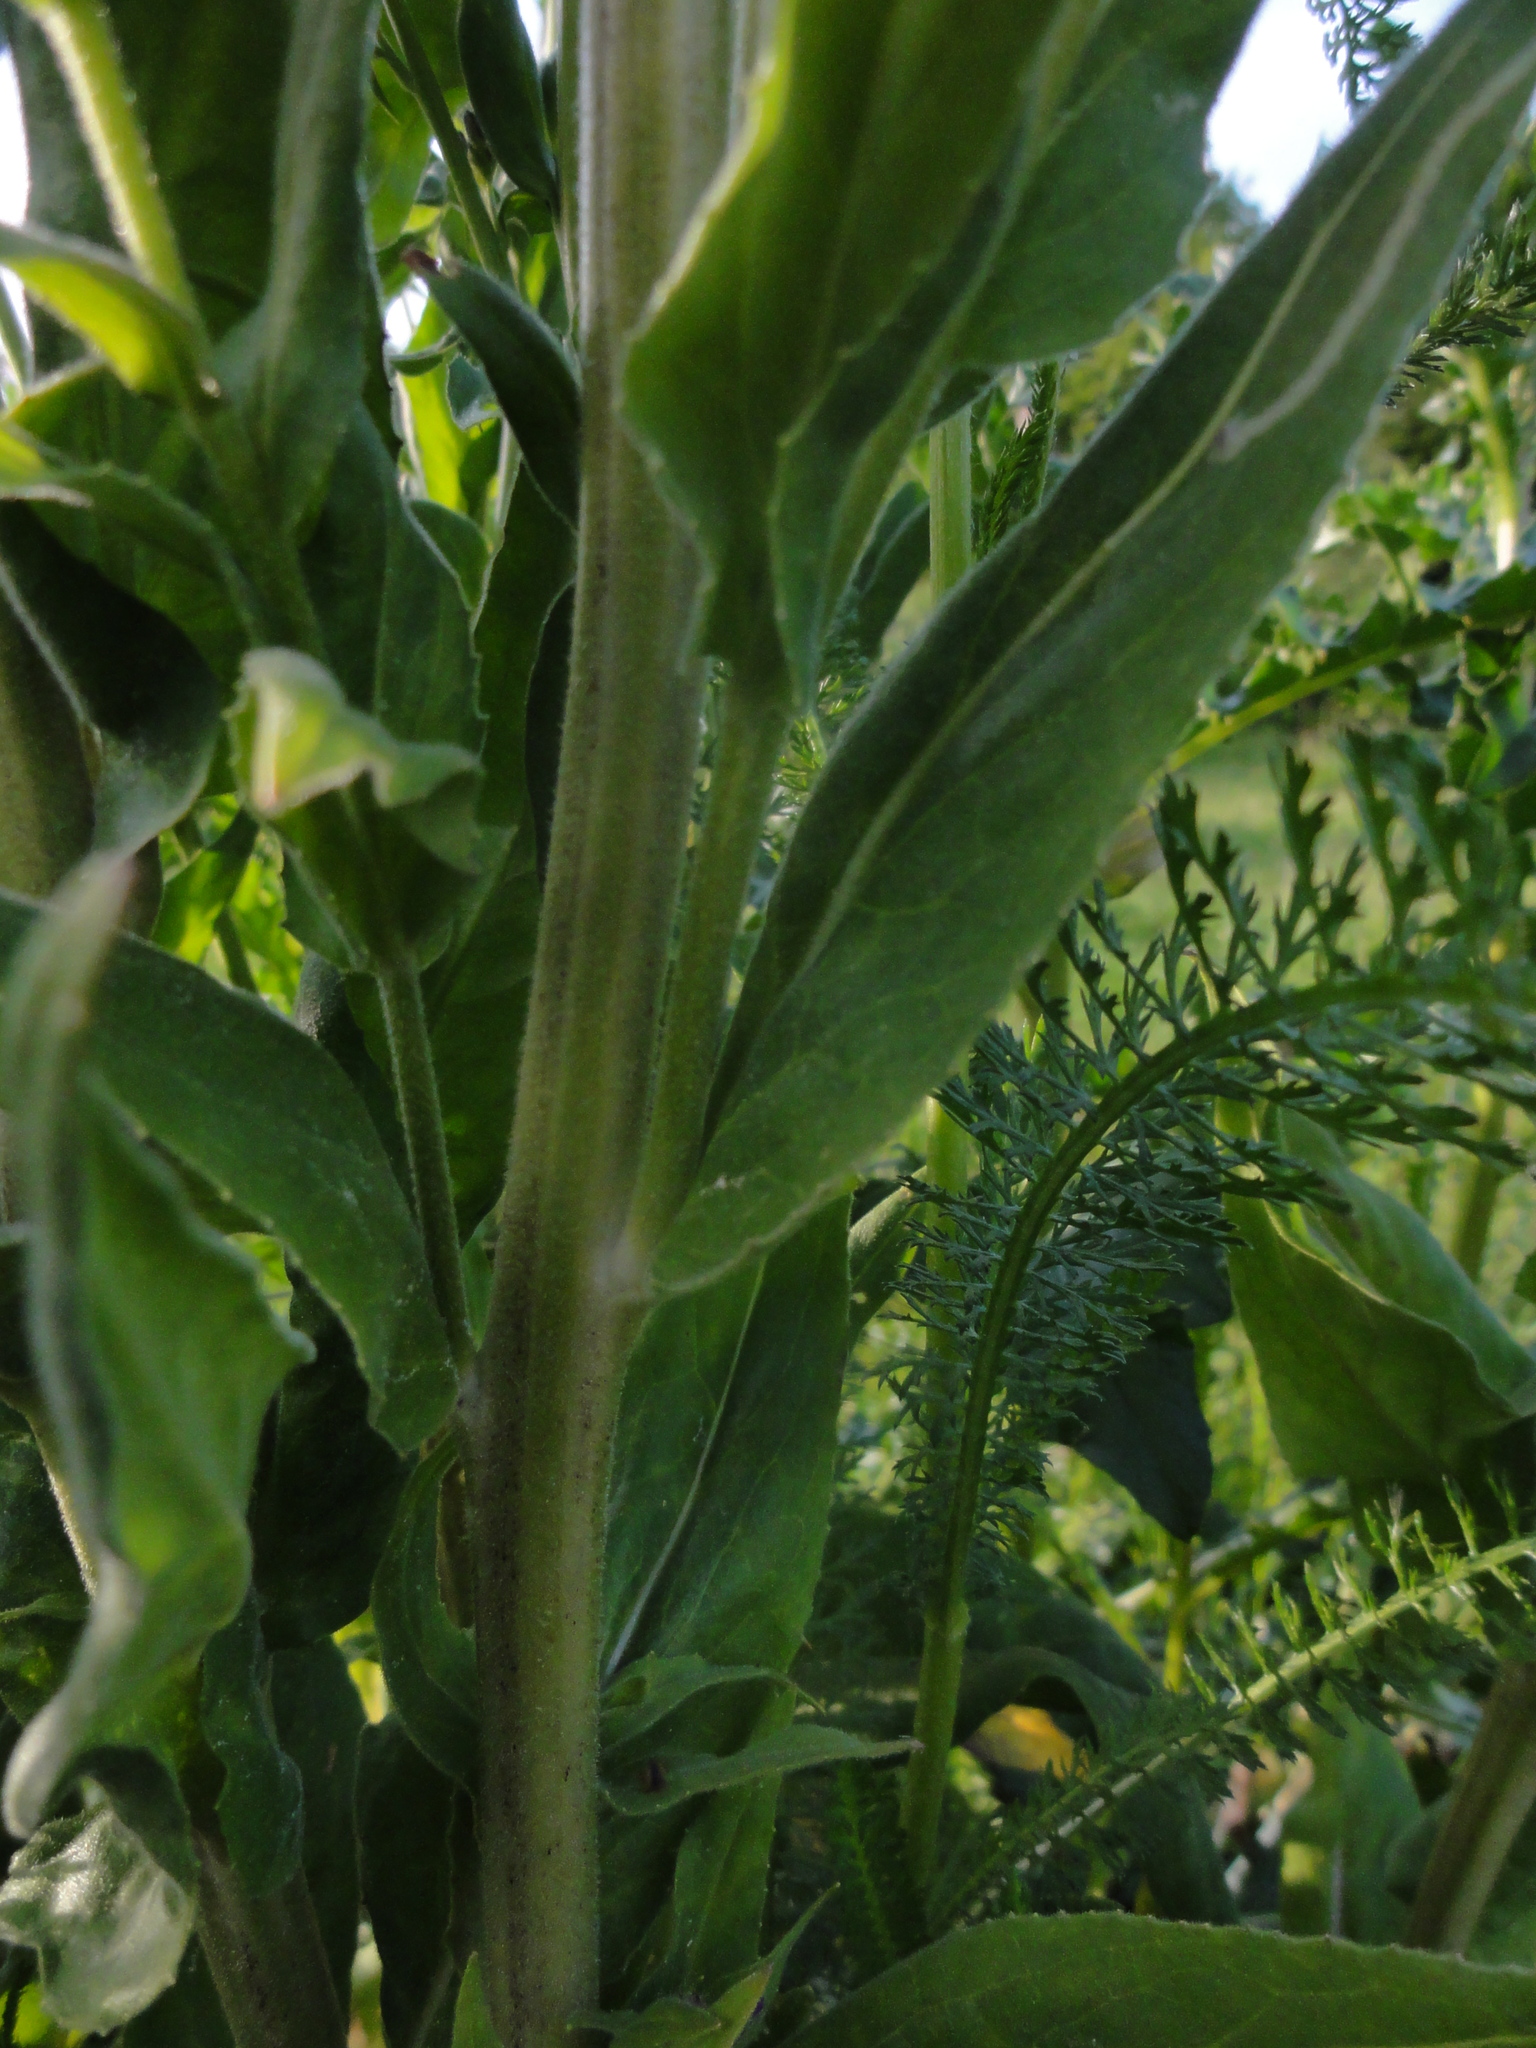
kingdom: Plantae
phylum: Tracheophyta
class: Magnoliopsida
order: Brassicales
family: Brassicaceae
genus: Hesperis
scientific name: Hesperis matronalis
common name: Dame's-violet
